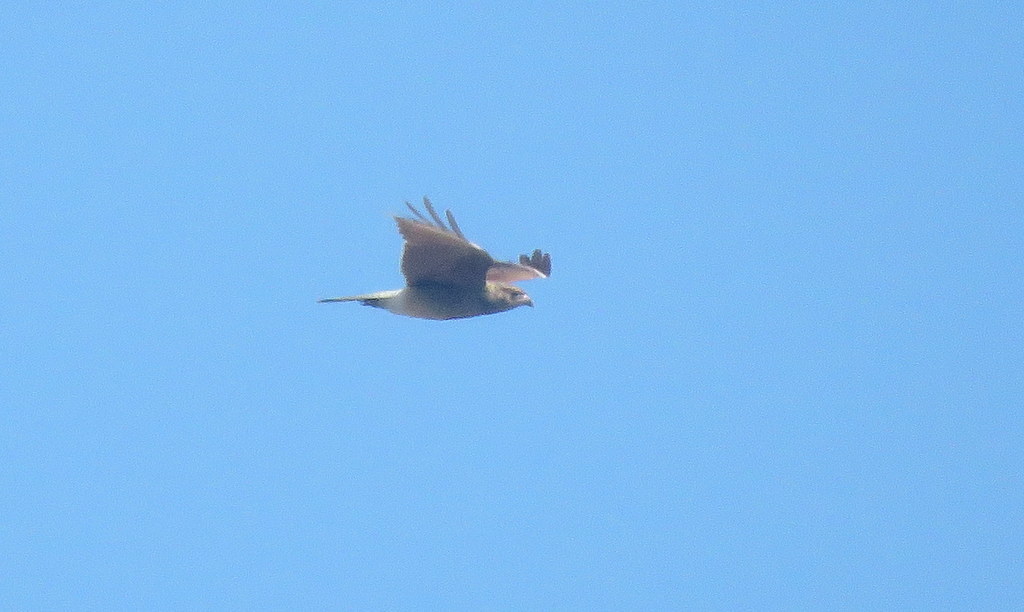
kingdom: Animalia
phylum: Chordata
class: Aves
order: Falconiformes
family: Falconidae
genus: Daptrius
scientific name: Daptrius
